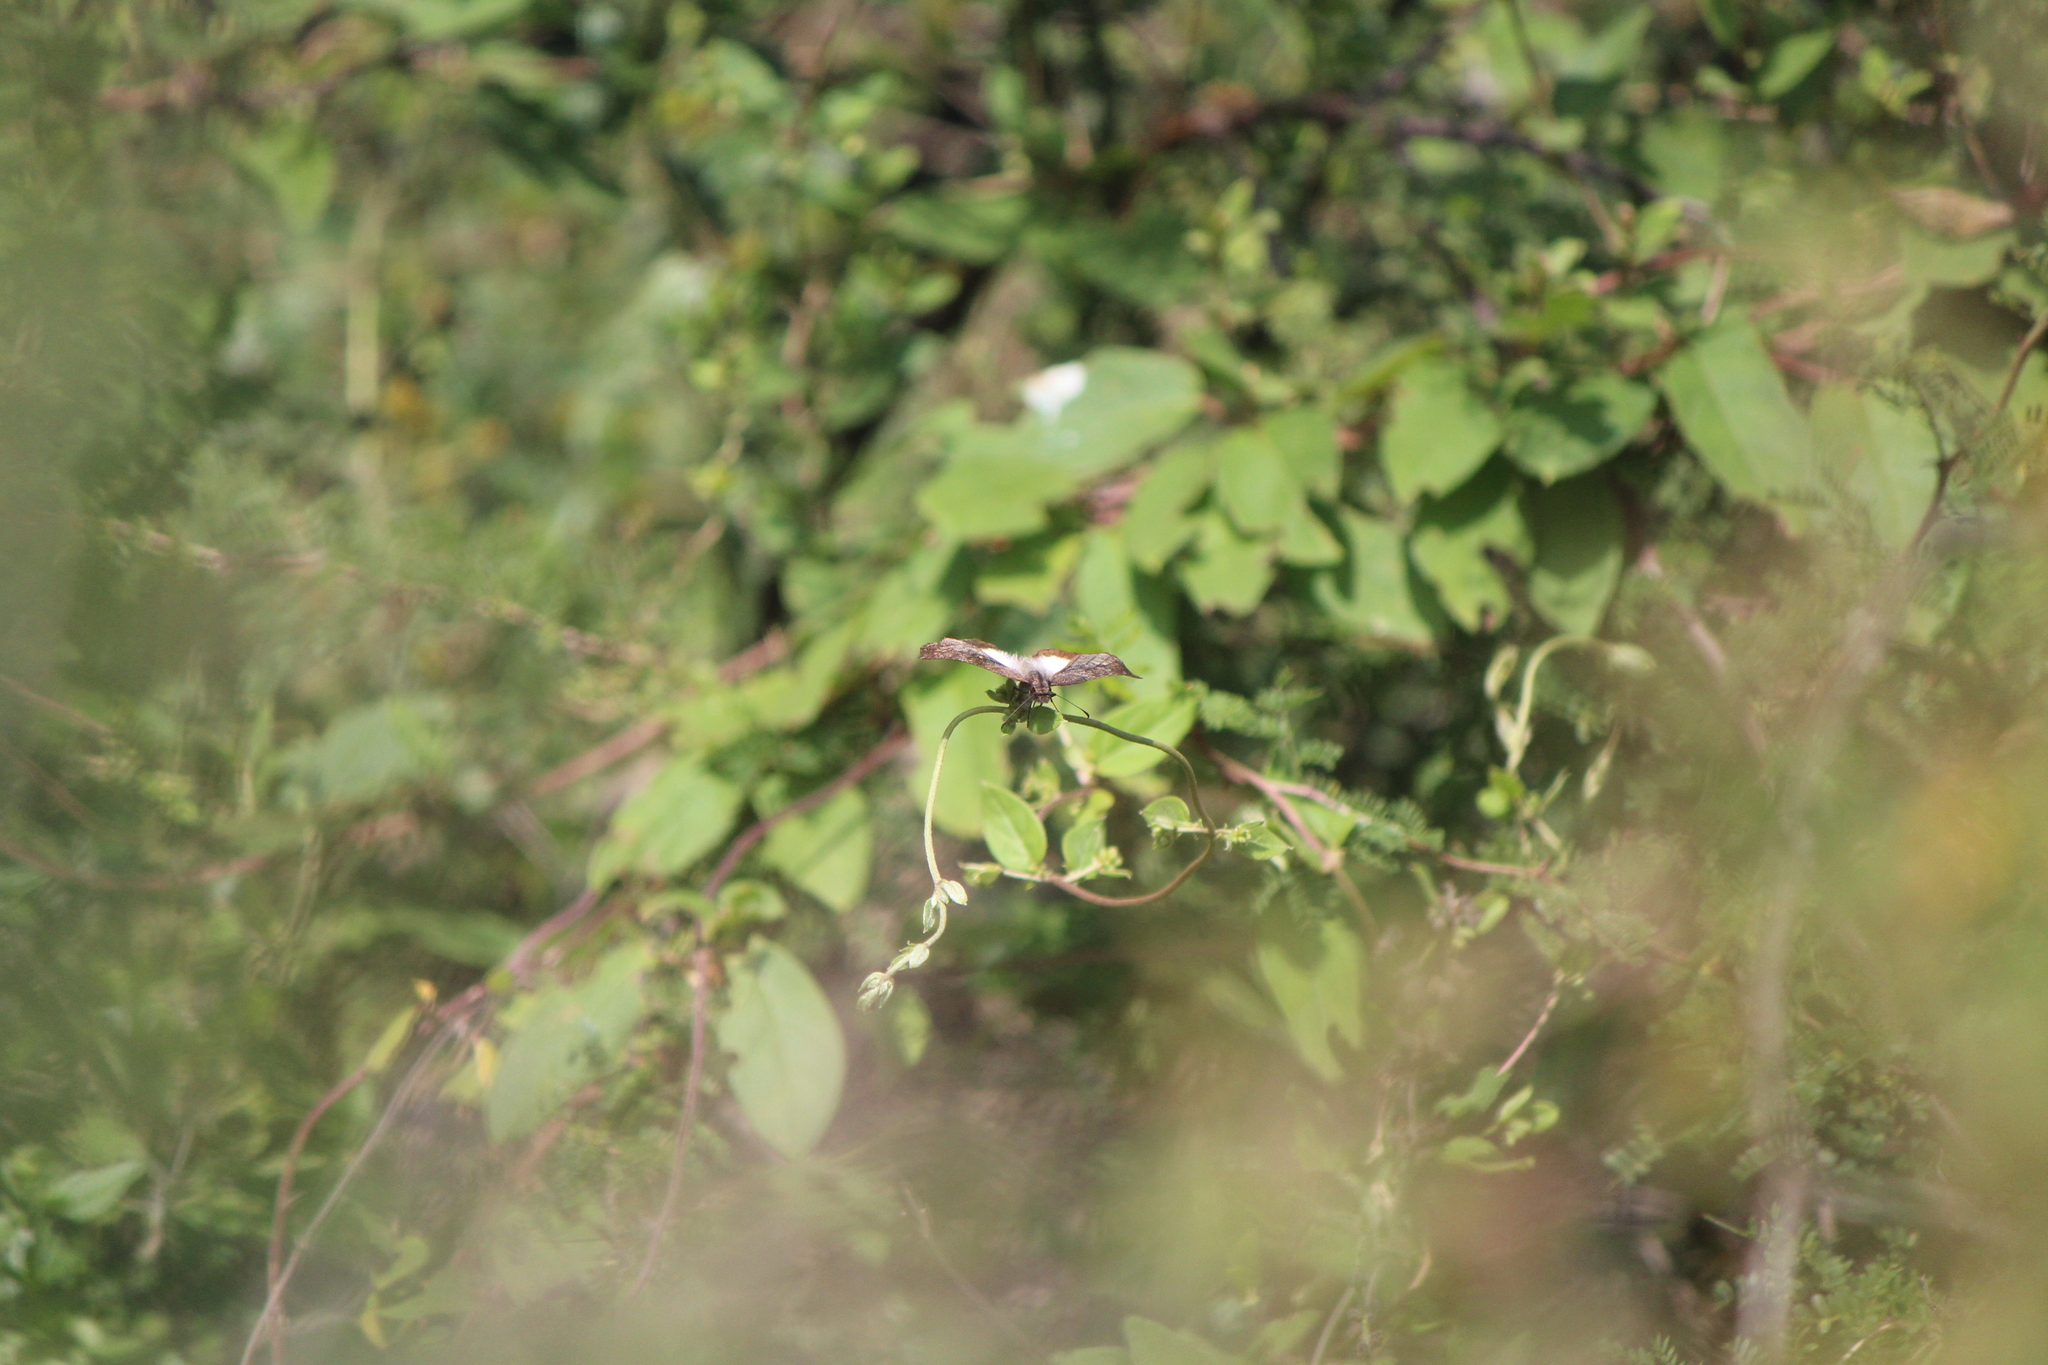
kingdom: Animalia
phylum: Arthropoda
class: Insecta
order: Lepidoptera
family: Hesperiidae
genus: Theagenes
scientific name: Theagenes
